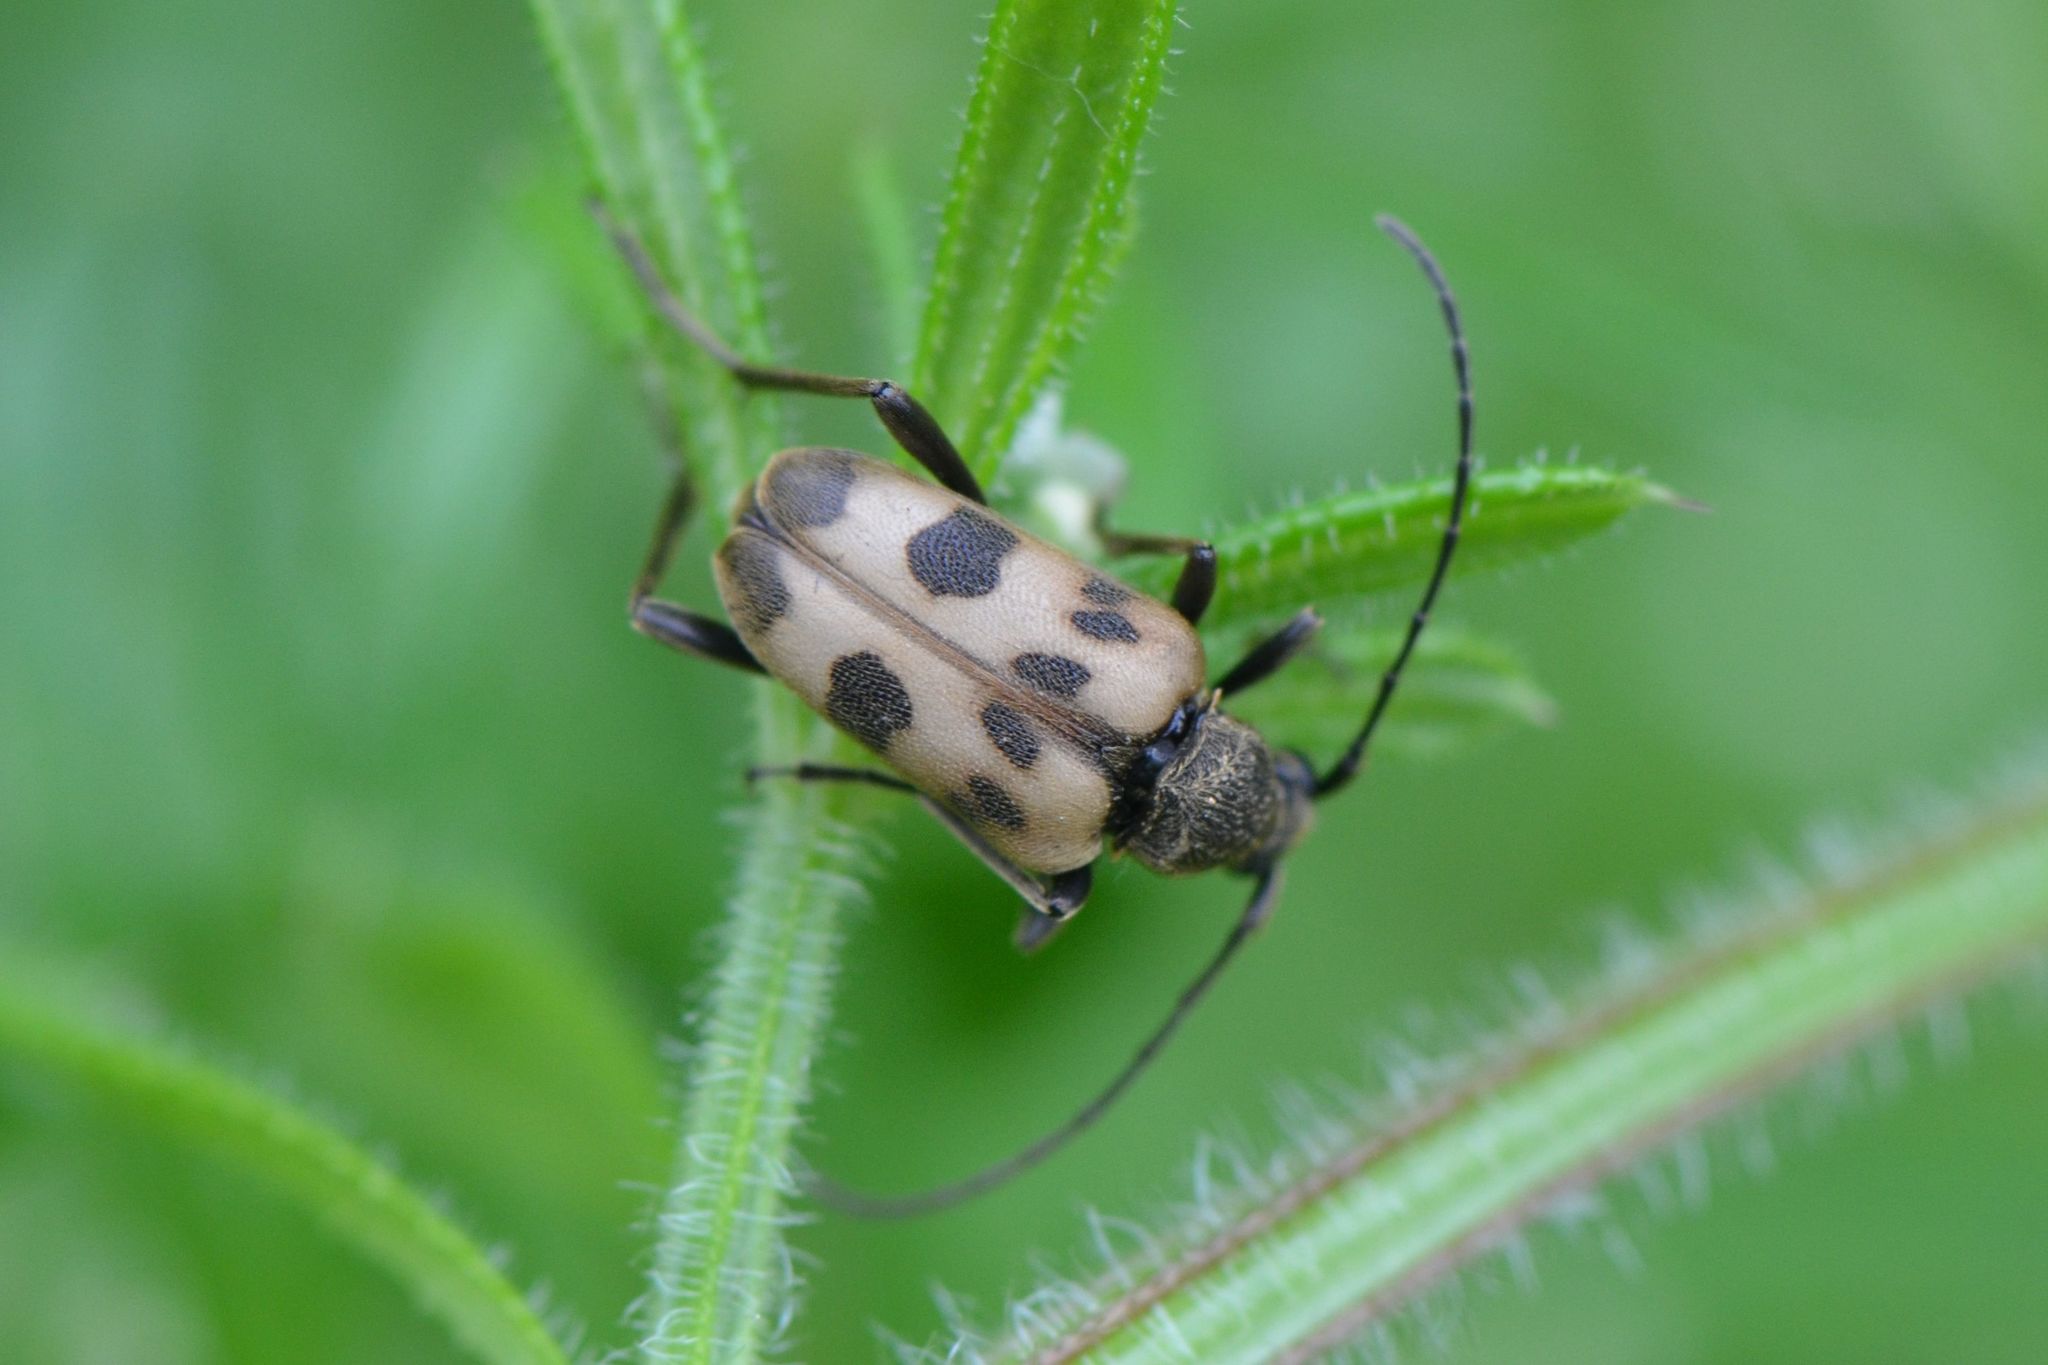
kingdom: Animalia
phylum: Arthropoda
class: Insecta
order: Coleoptera
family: Cerambycidae
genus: Pachytodes
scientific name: Pachytodes cerambyciformis
